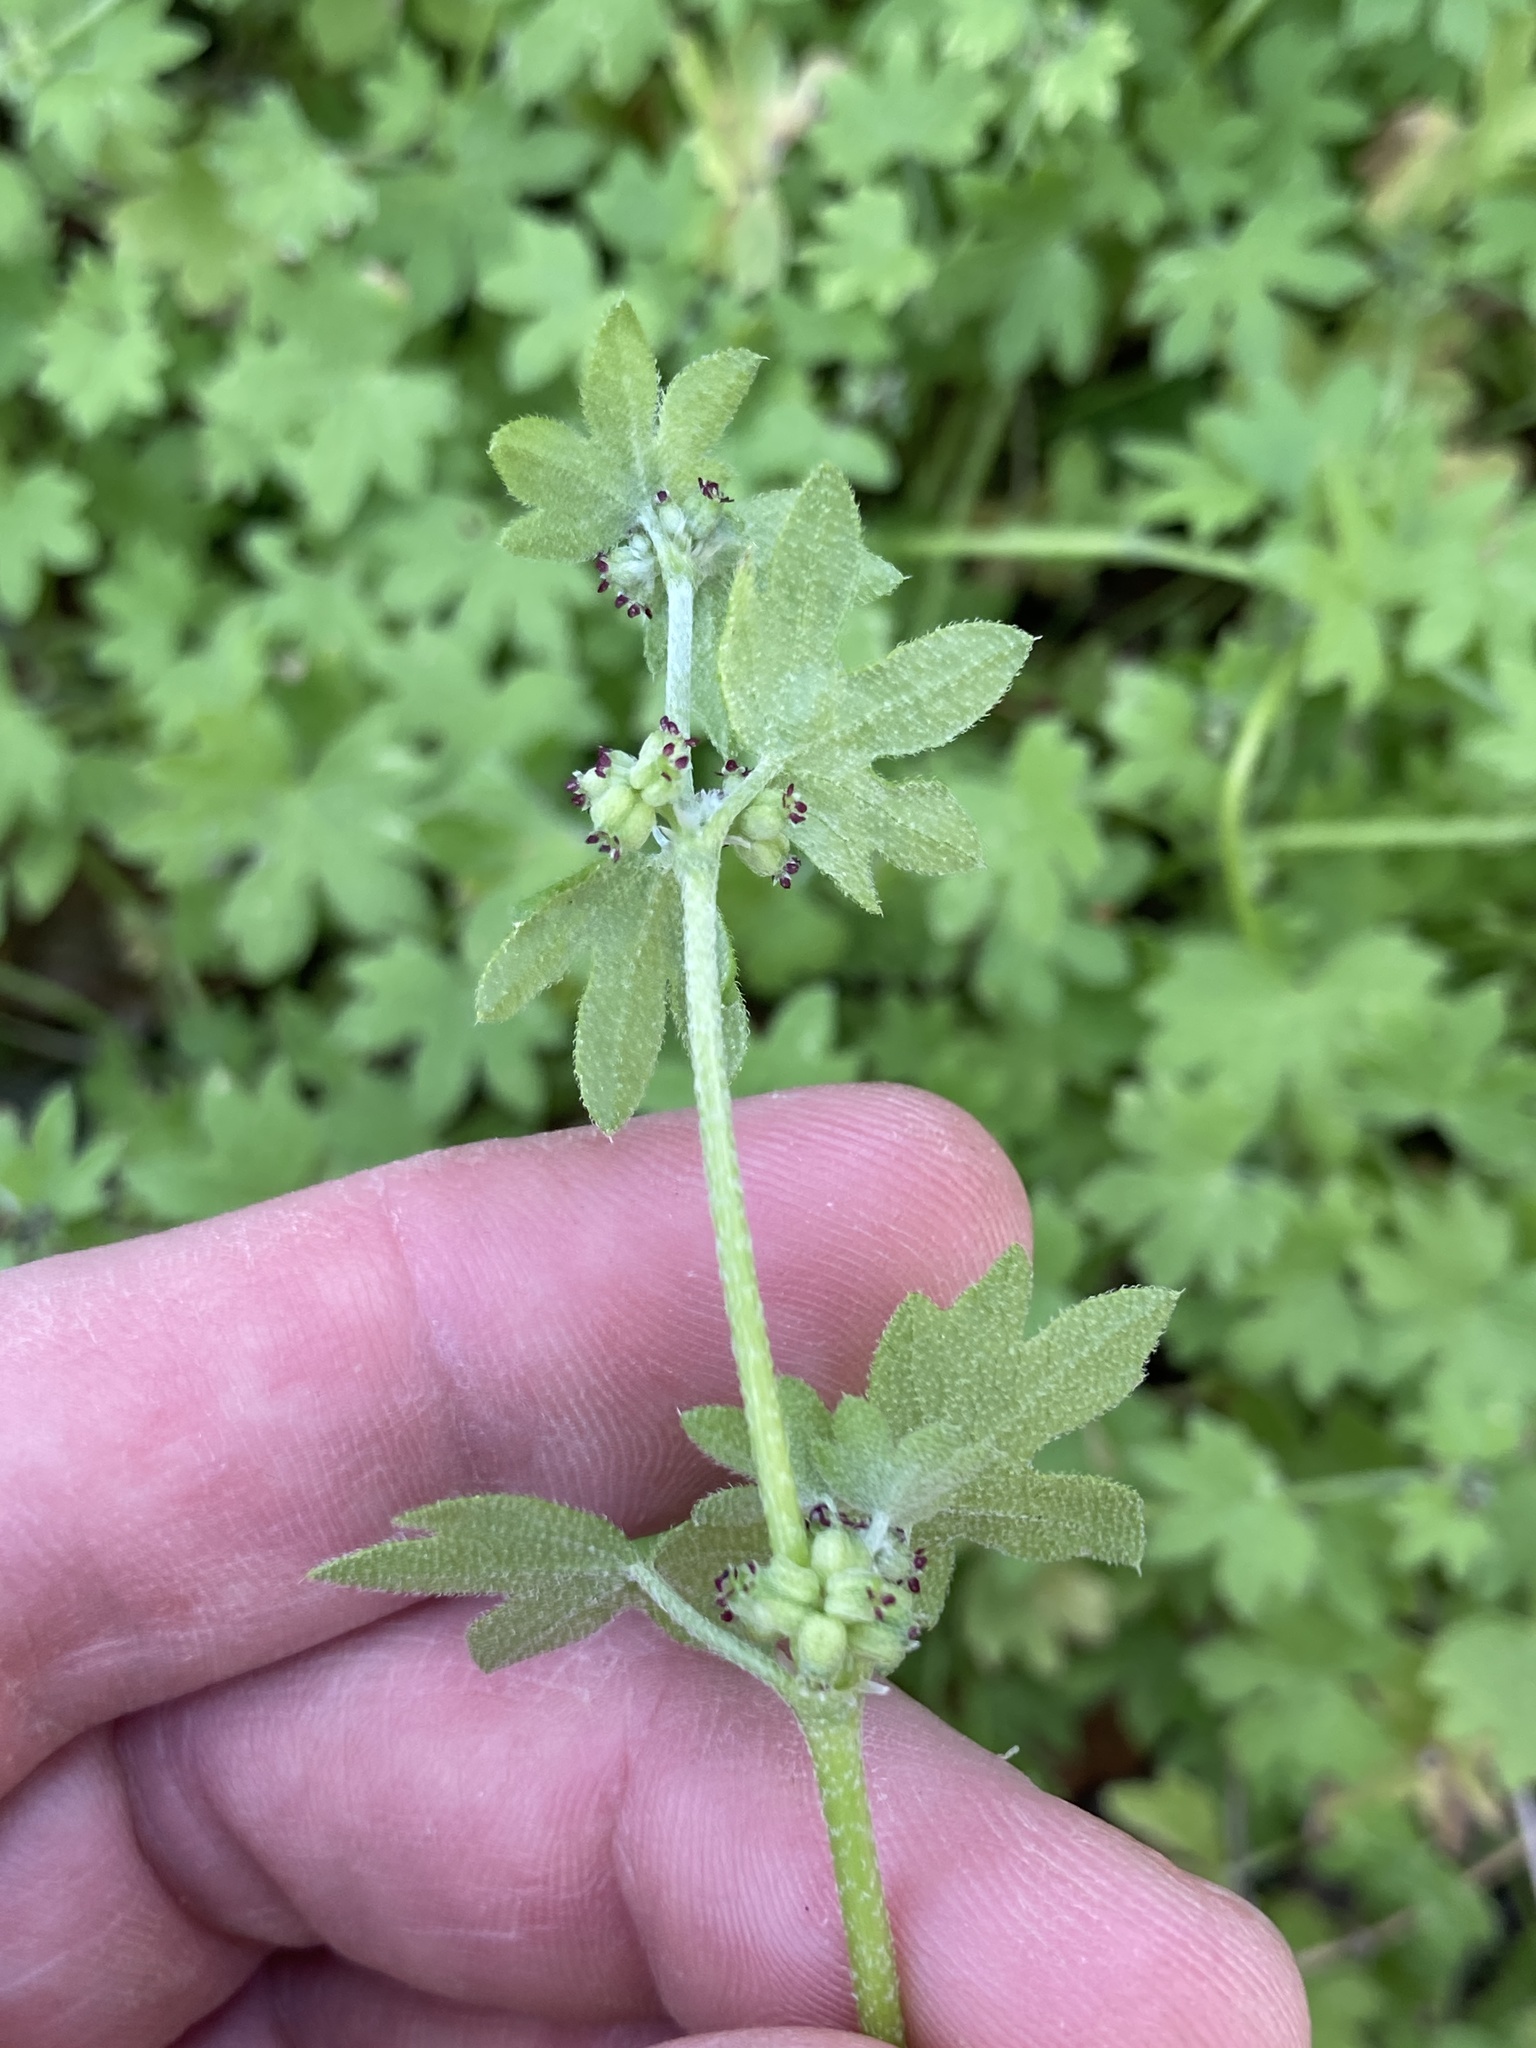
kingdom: Plantae
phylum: Tracheophyta
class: Magnoliopsida
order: Apiales
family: Apiaceae
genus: Bowlesia
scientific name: Bowlesia incana
